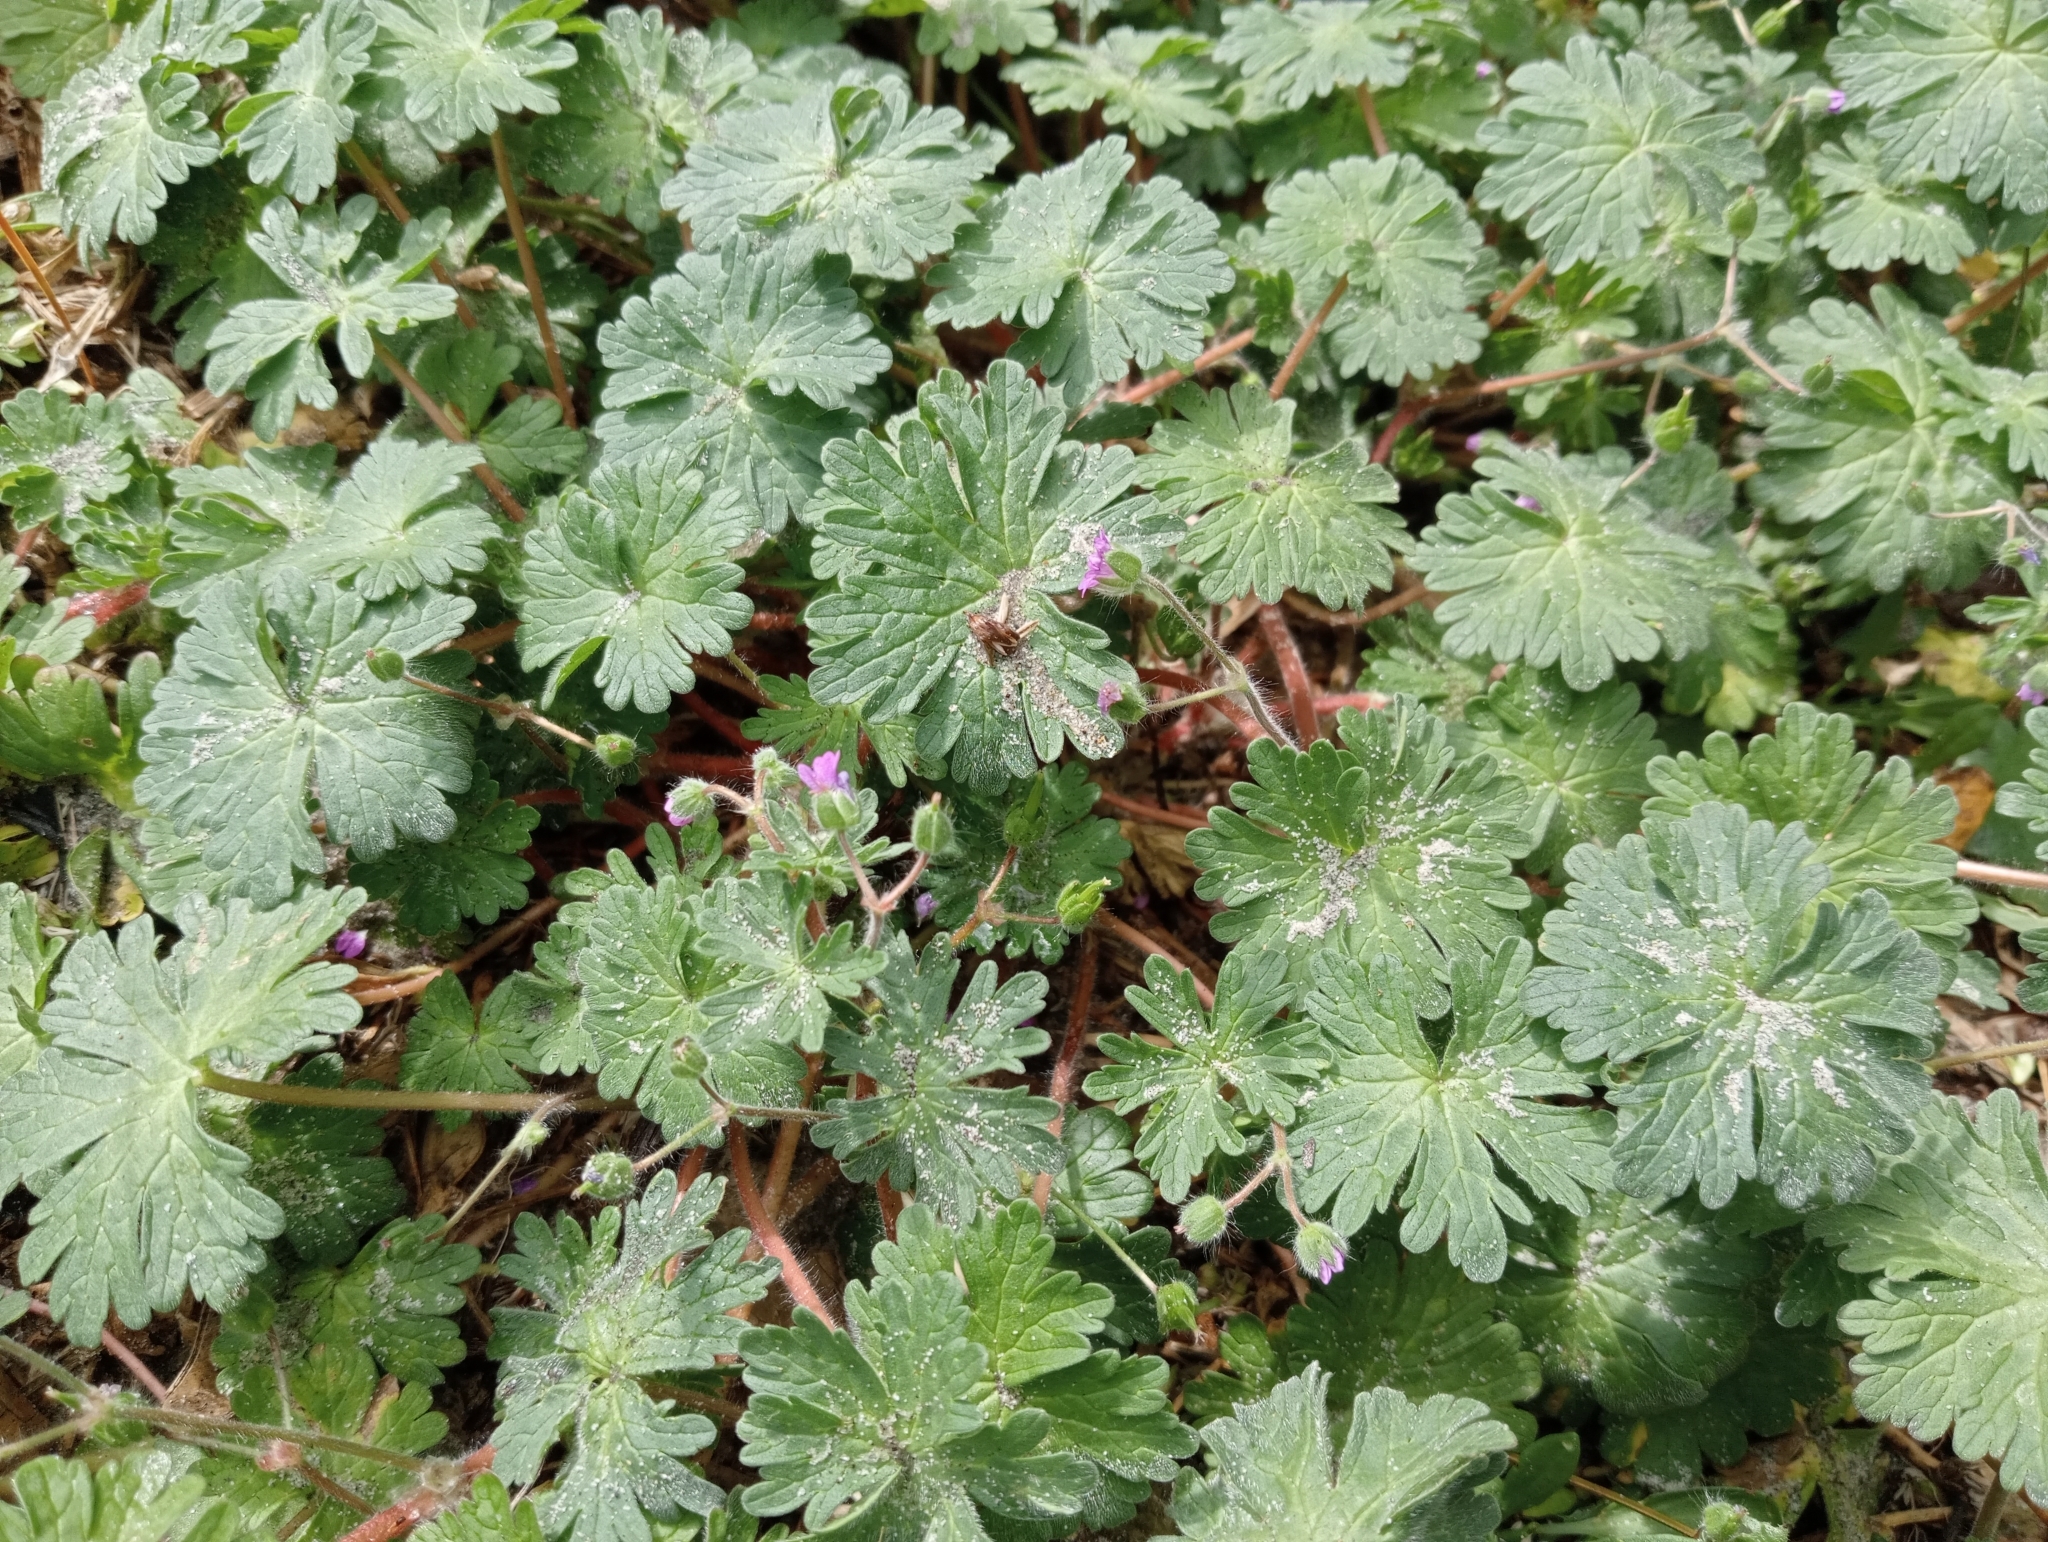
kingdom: Plantae
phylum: Tracheophyta
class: Magnoliopsida
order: Geraniales
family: Geraniaceae
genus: Geranium
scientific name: Geranium molle
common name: Dove's-foot crane's-bill
